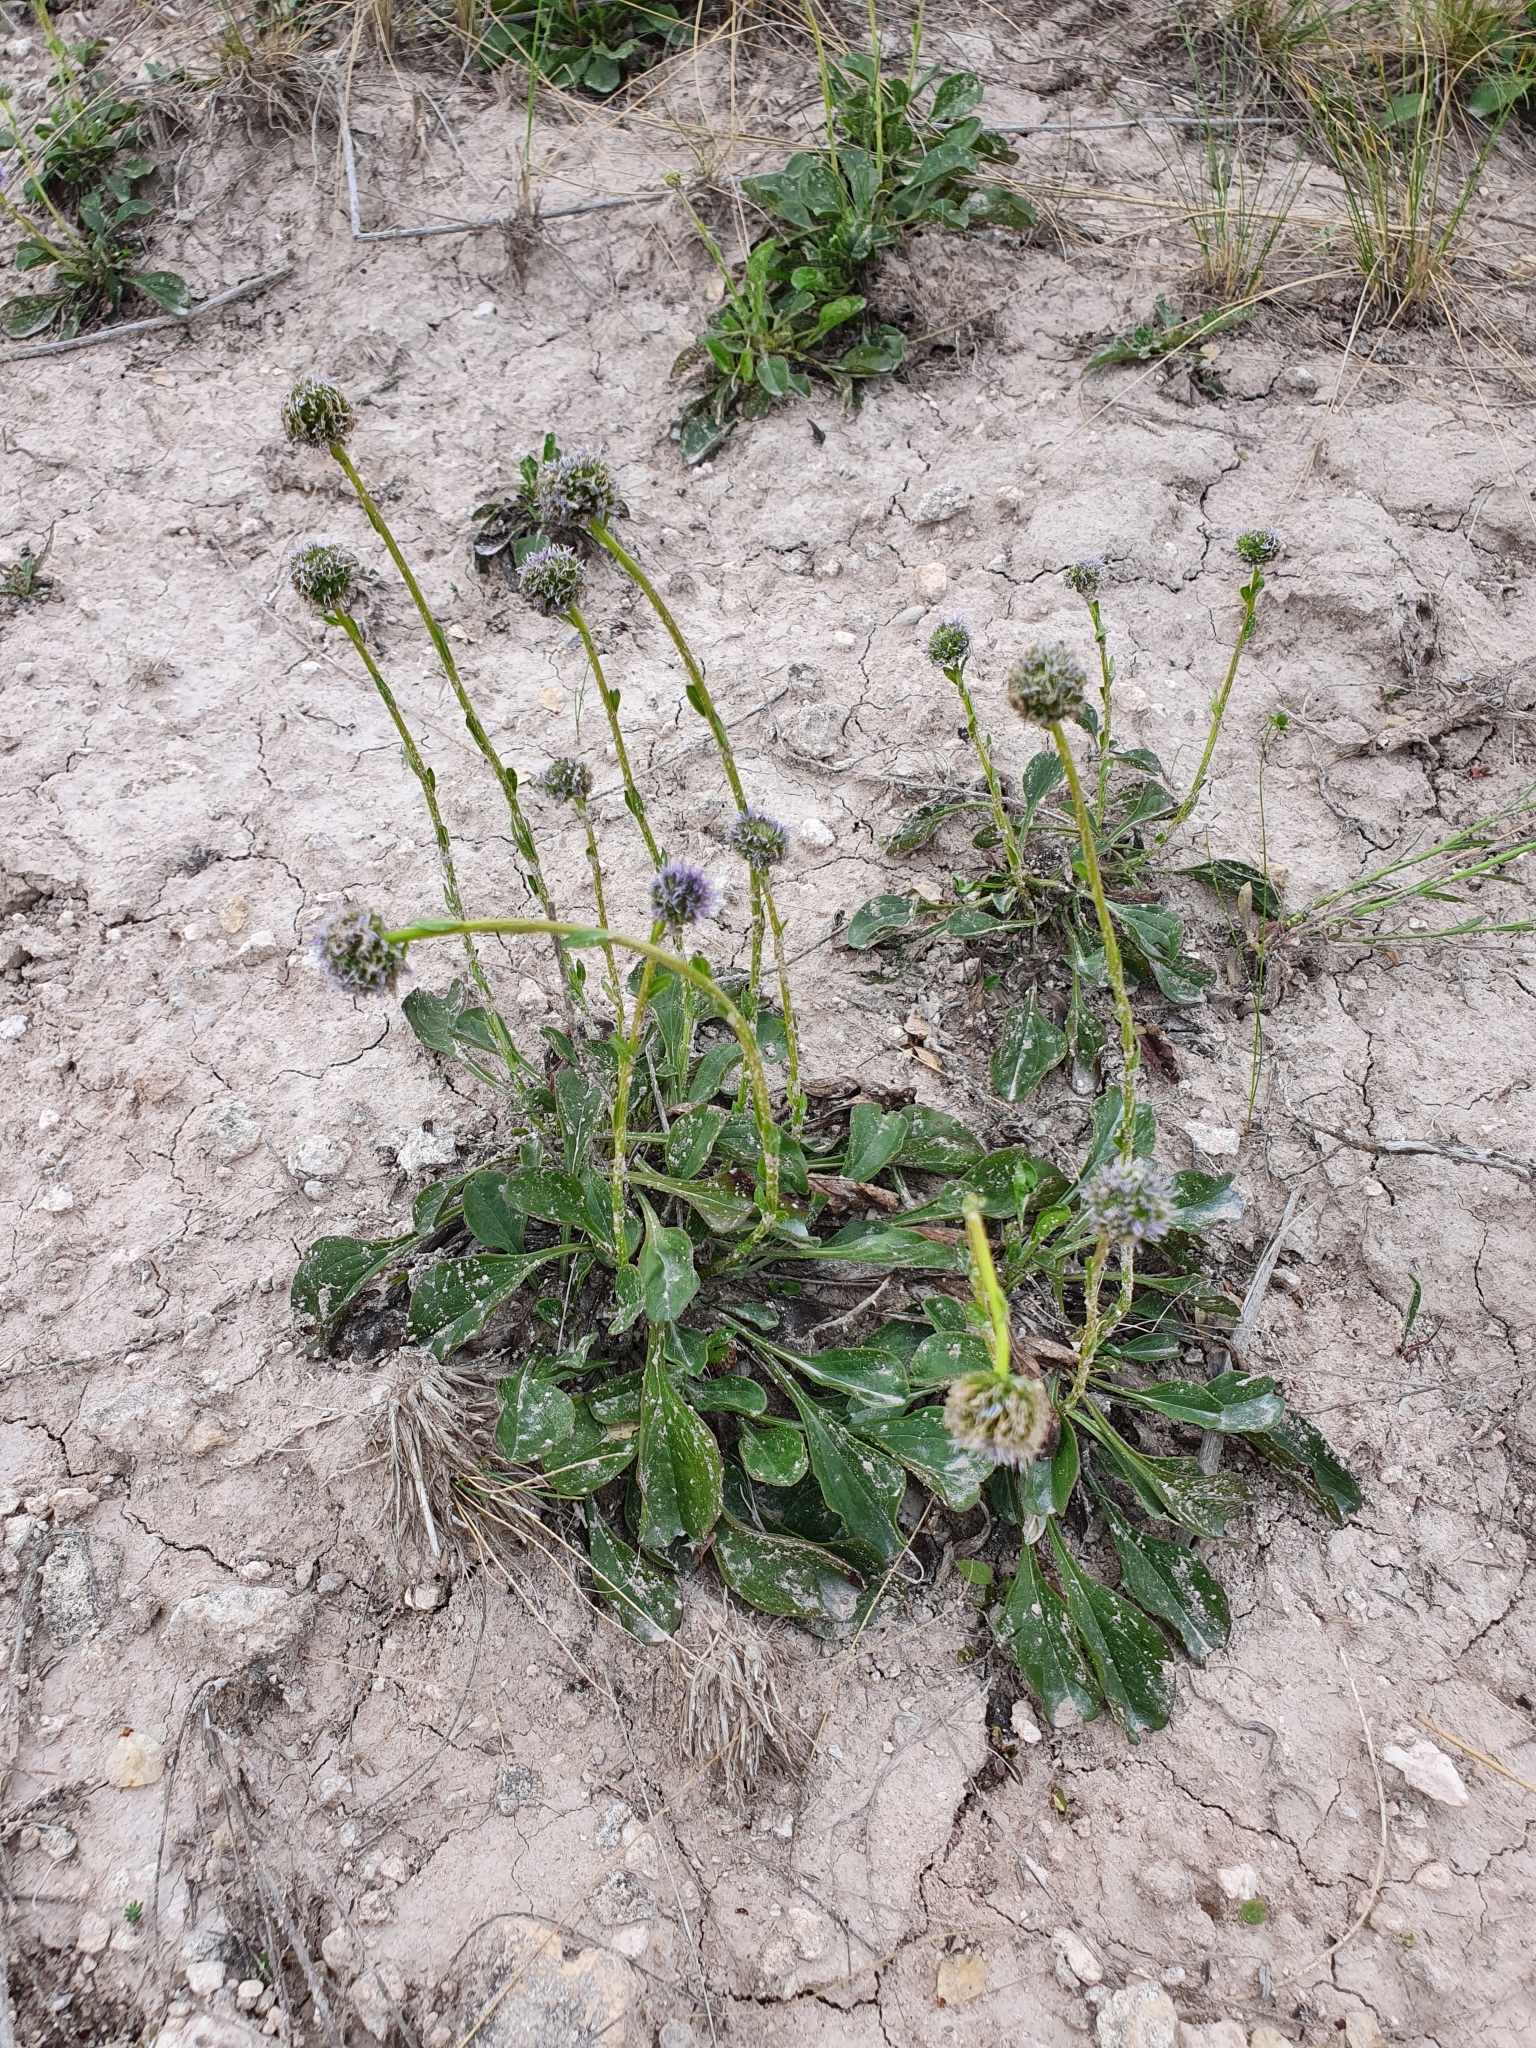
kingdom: Plantae
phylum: Tracheophyta
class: Magnoliopsida
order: Lamiales
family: Plantaginaceae
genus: Globularia
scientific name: Globularia bisnagarica
